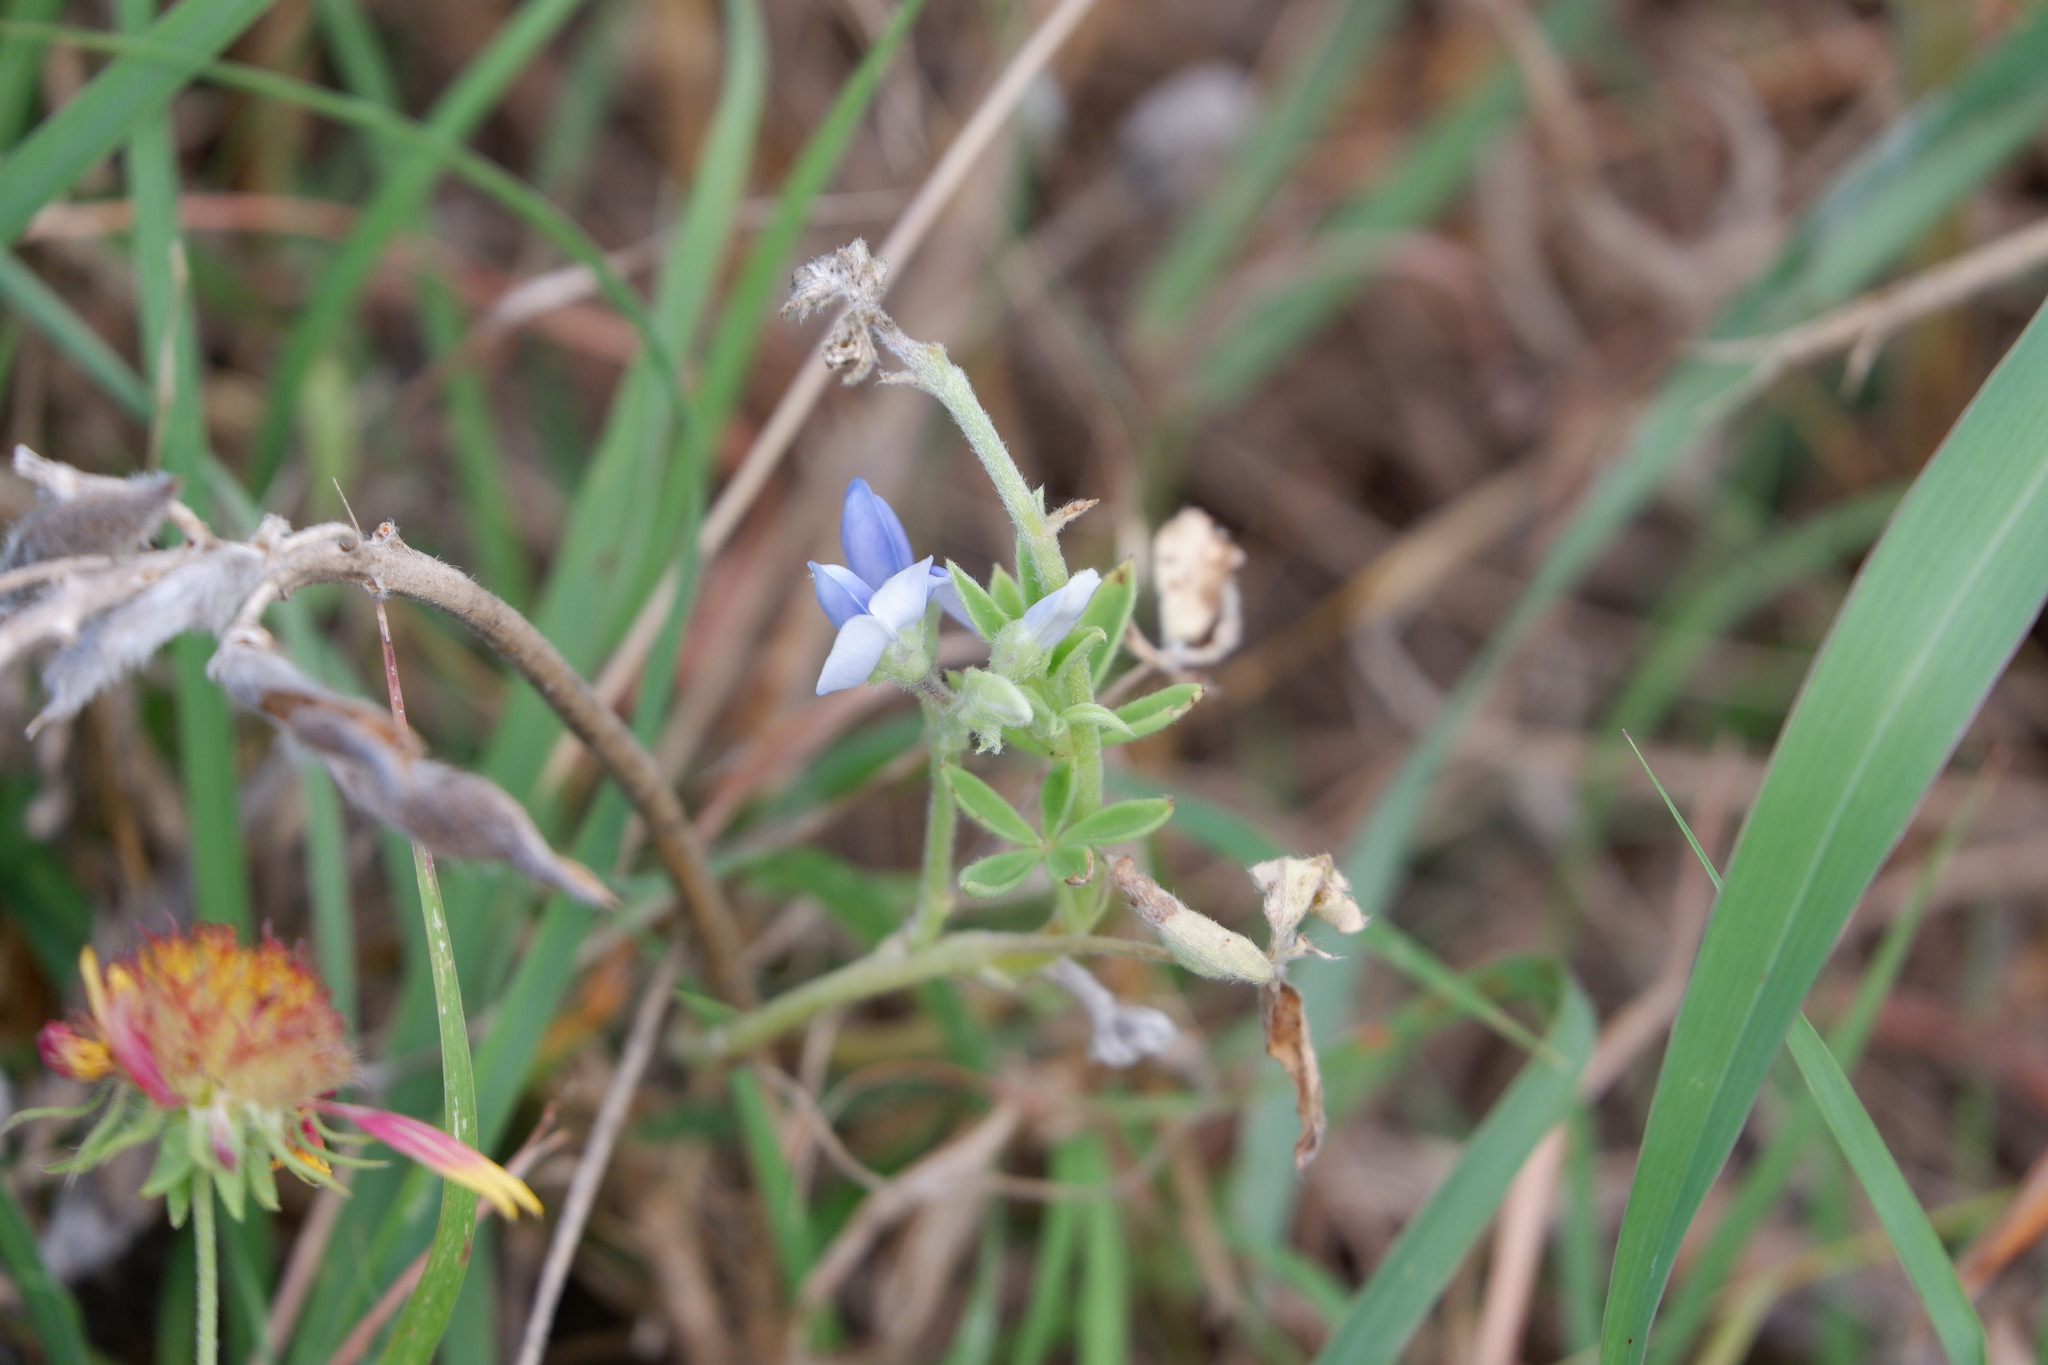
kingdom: Plantae
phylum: Tracheophyta
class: Magnoliopsida
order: Fabales
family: Fabaceae
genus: Lupinus
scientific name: Lupinus texensis
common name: Texas bluebonnet
